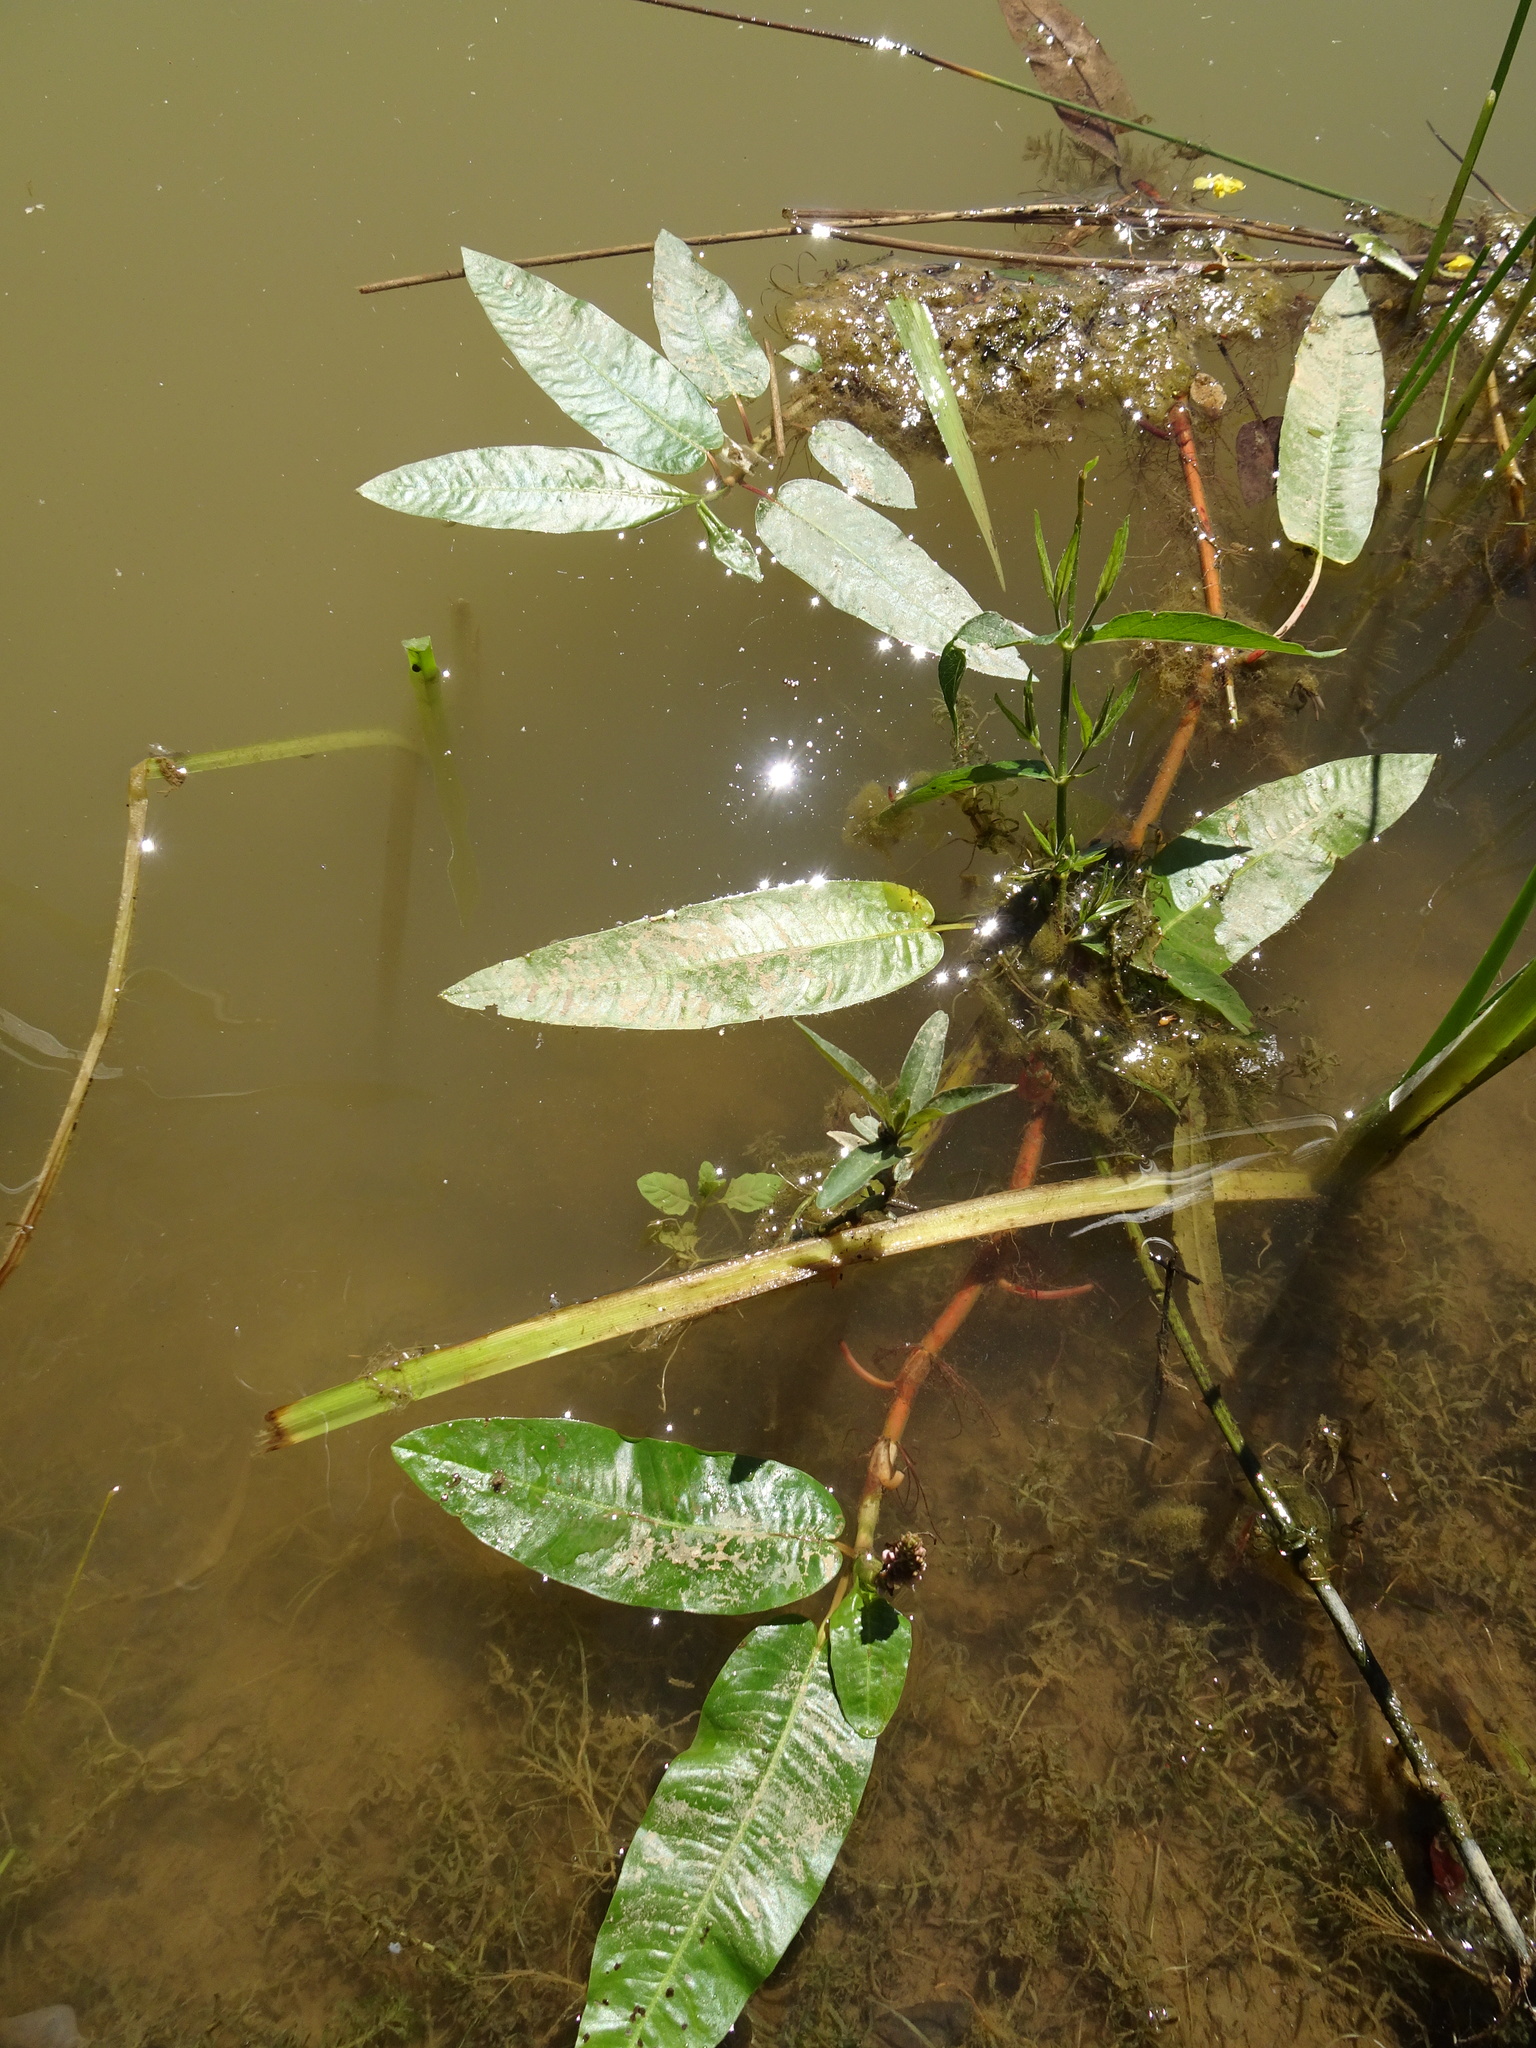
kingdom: Plantae
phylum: Tracheophyta
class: Magnoliopsida
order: Caryophyllales
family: Polygonaceae
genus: Persicaria
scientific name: Persicaria amphibia
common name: Amphibious bistort
